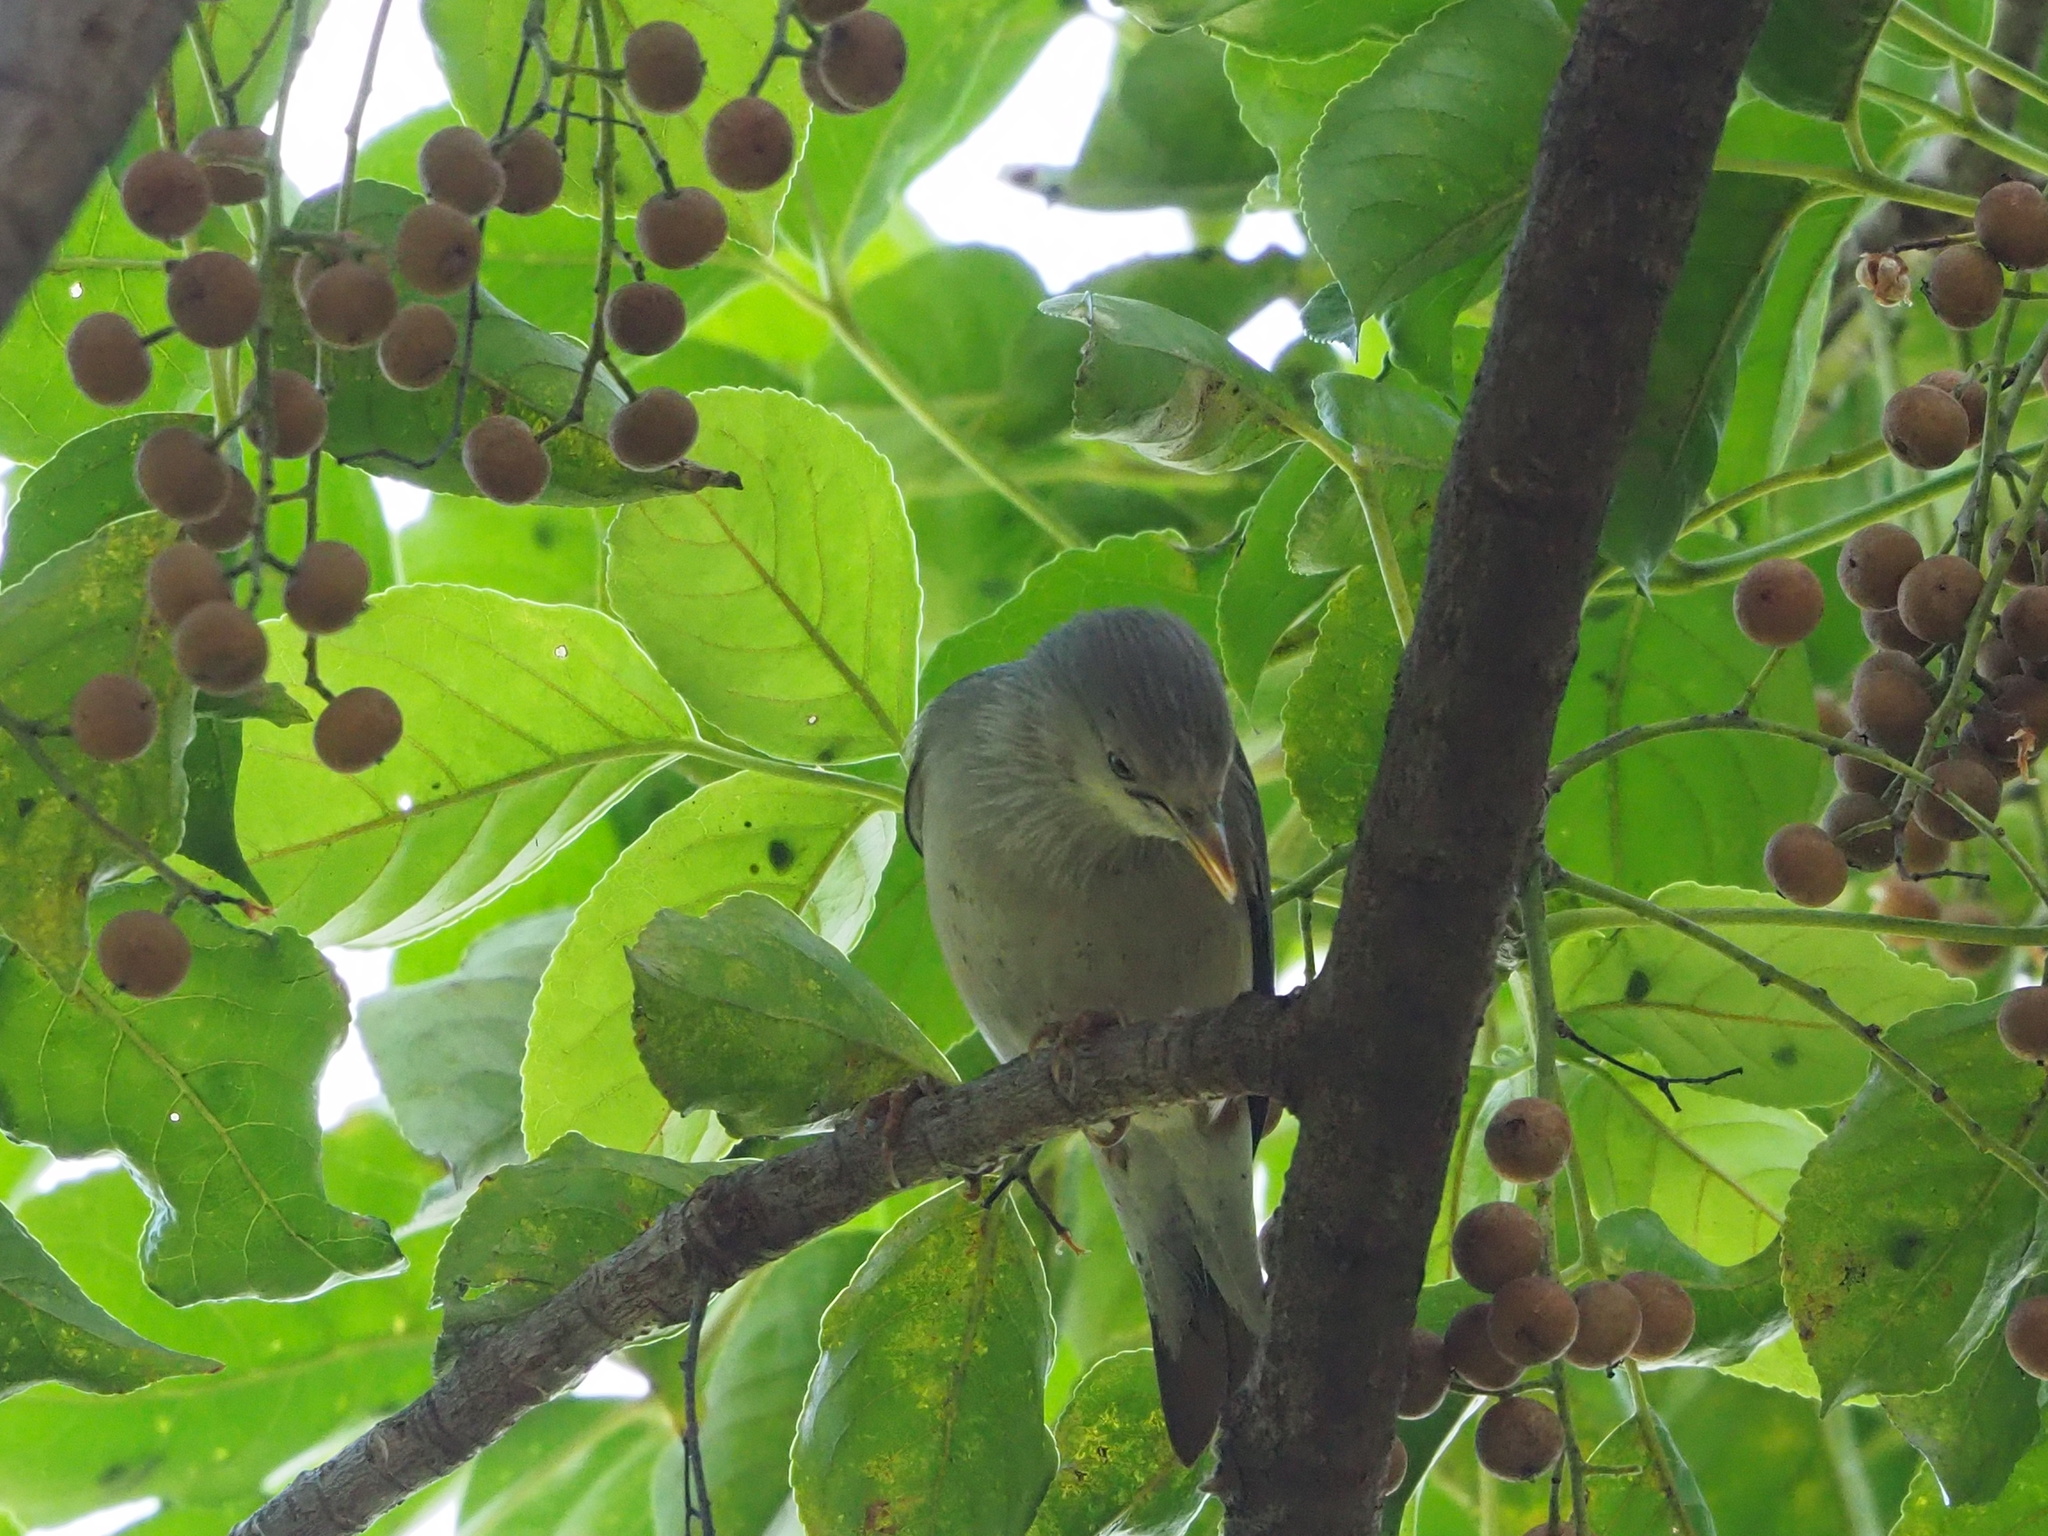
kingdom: Animalia
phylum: Chordata
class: Aves
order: Passeriformes
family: Sturnidae
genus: Sturnia
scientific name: Sturnia malabarica
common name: Chestnut-tailed starling
